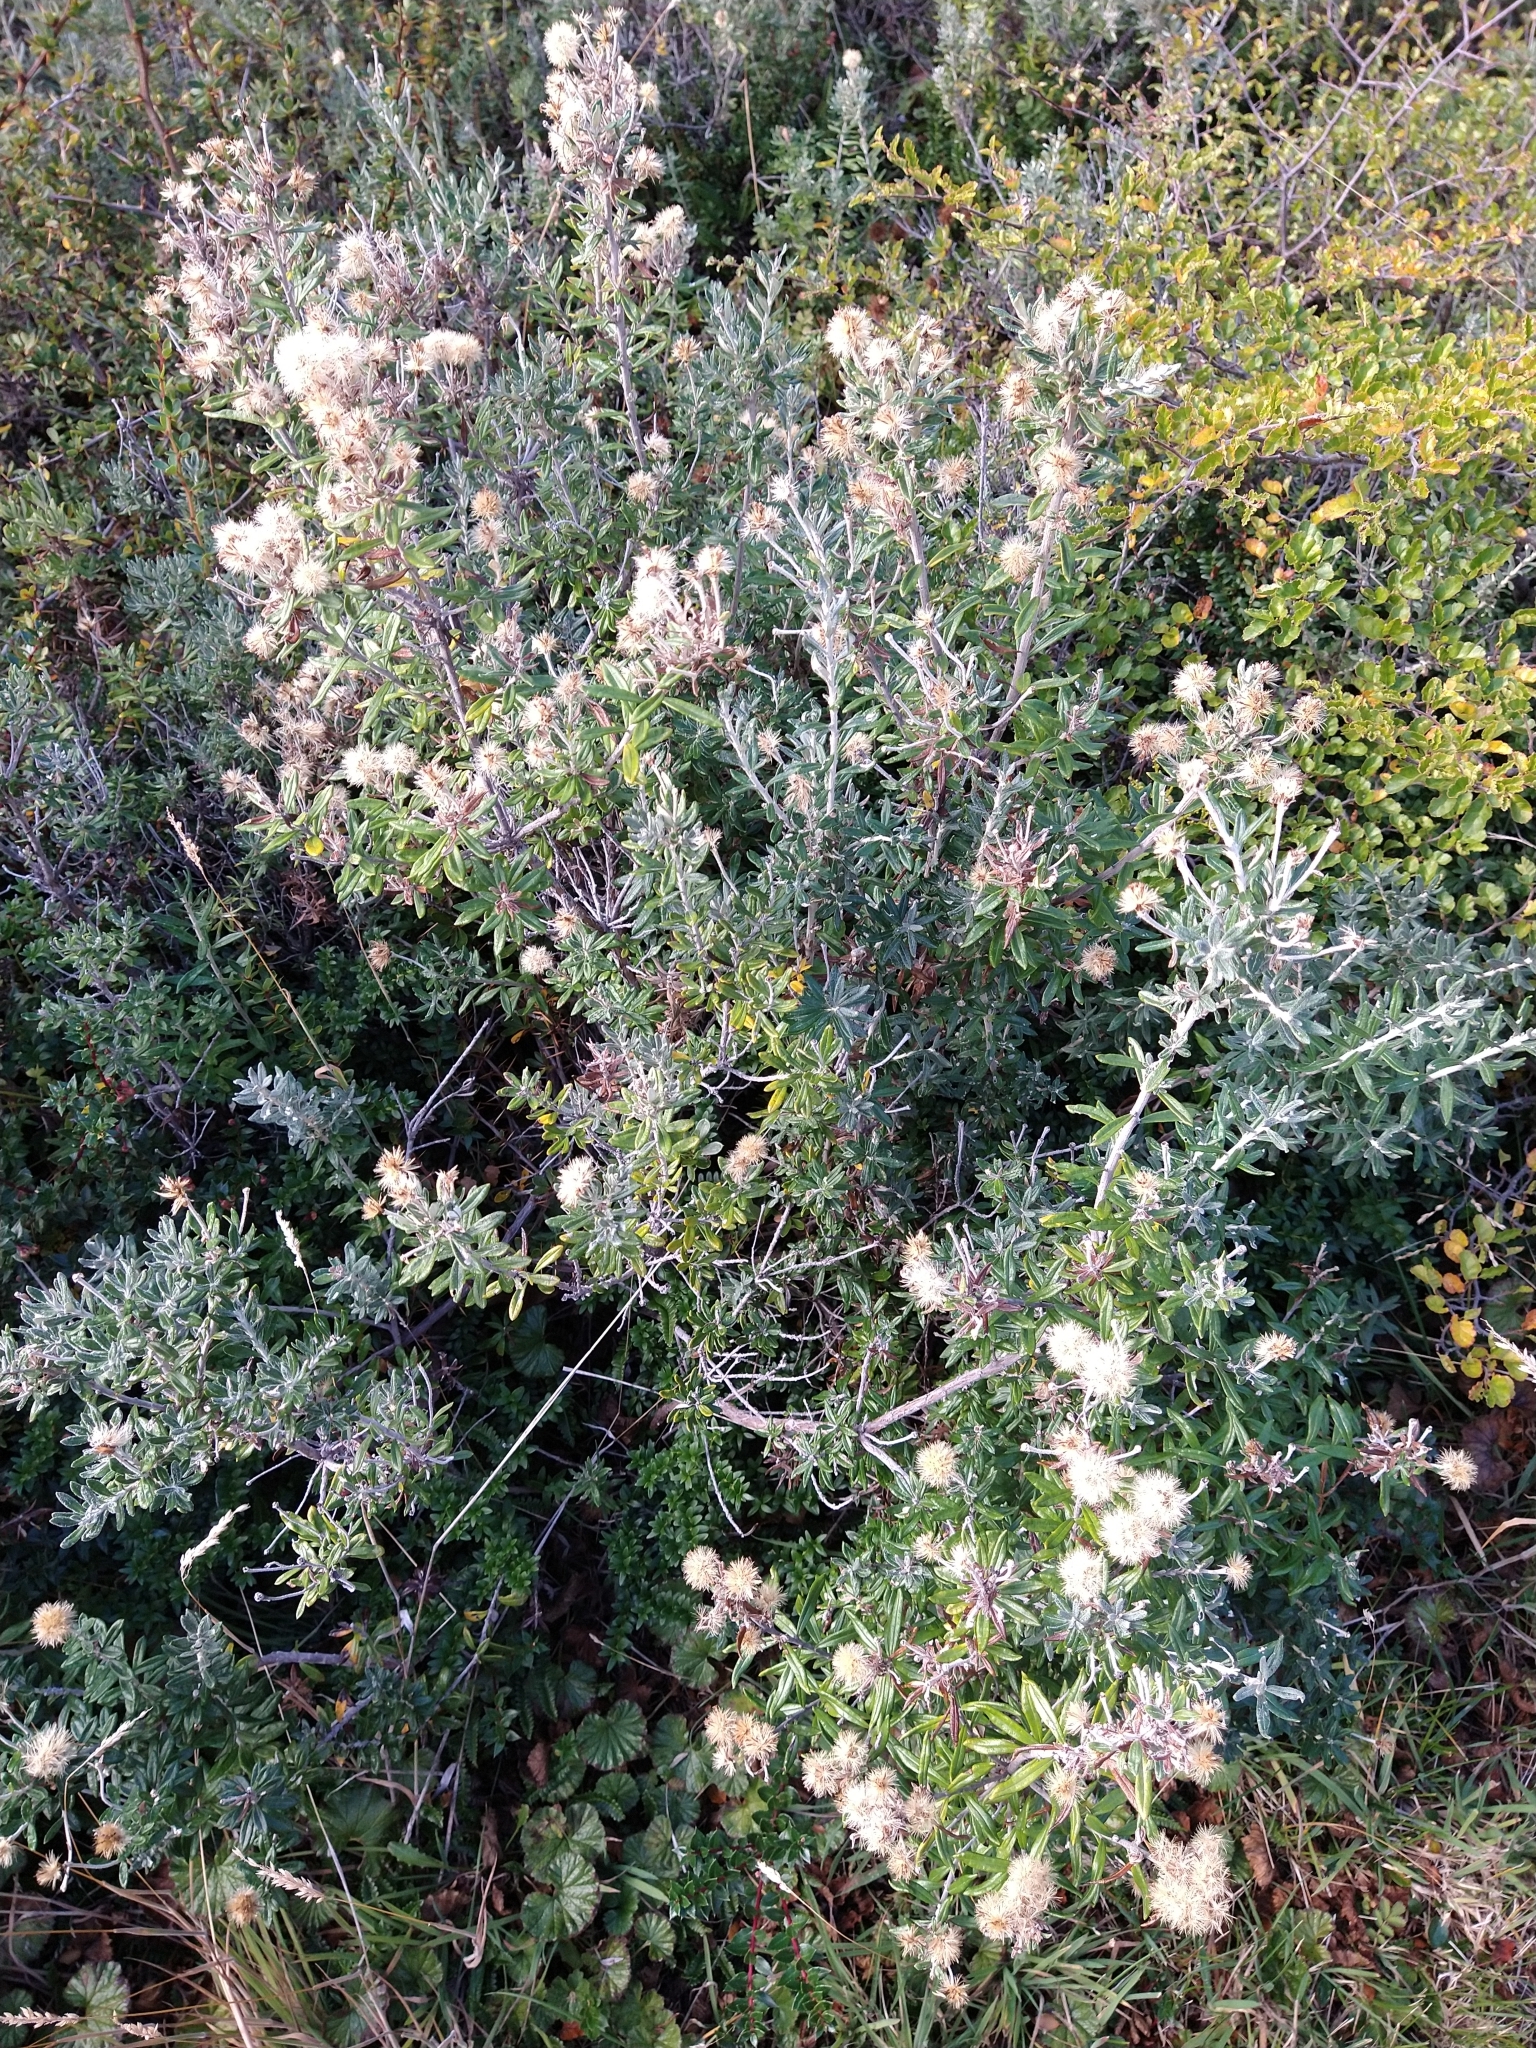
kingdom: Plantae
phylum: Tracheophyta
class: Magnoliopsida
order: Asterales
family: Asteraceae
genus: Chiliotrichum
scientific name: Chiliotrichum diffusum
